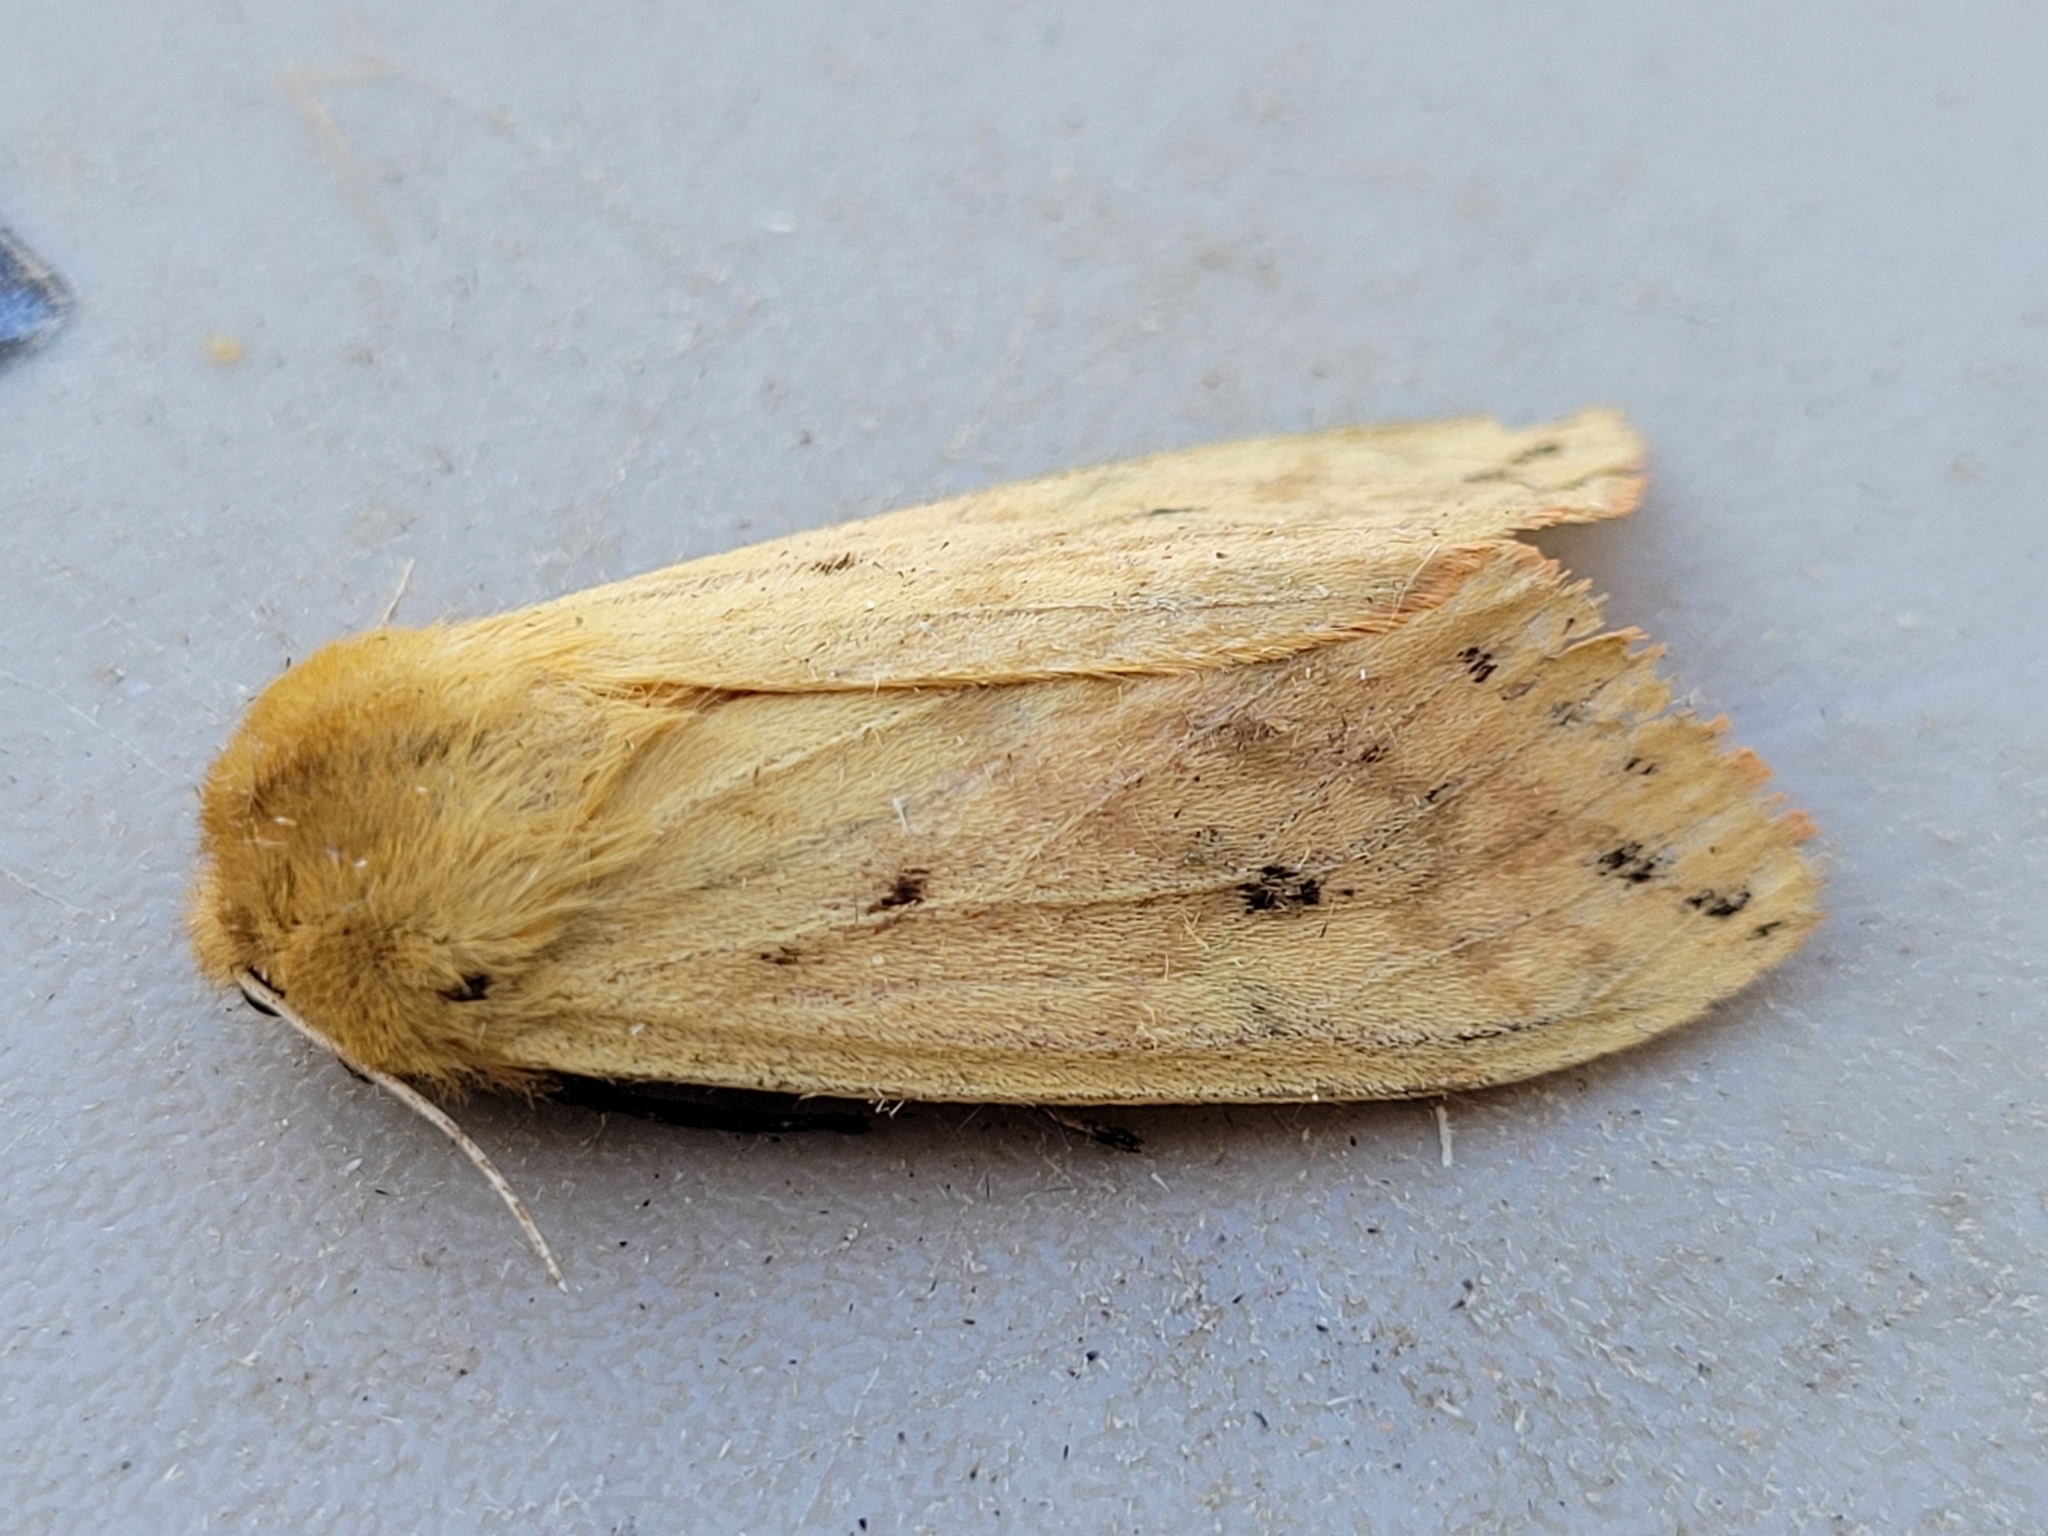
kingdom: Animalia
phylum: Arthropoda
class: Insecta
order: Lepidoptera
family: Erebidae
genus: Pyrrharctia
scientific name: Pyrrharctia isabella
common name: Isabella tiger moth
